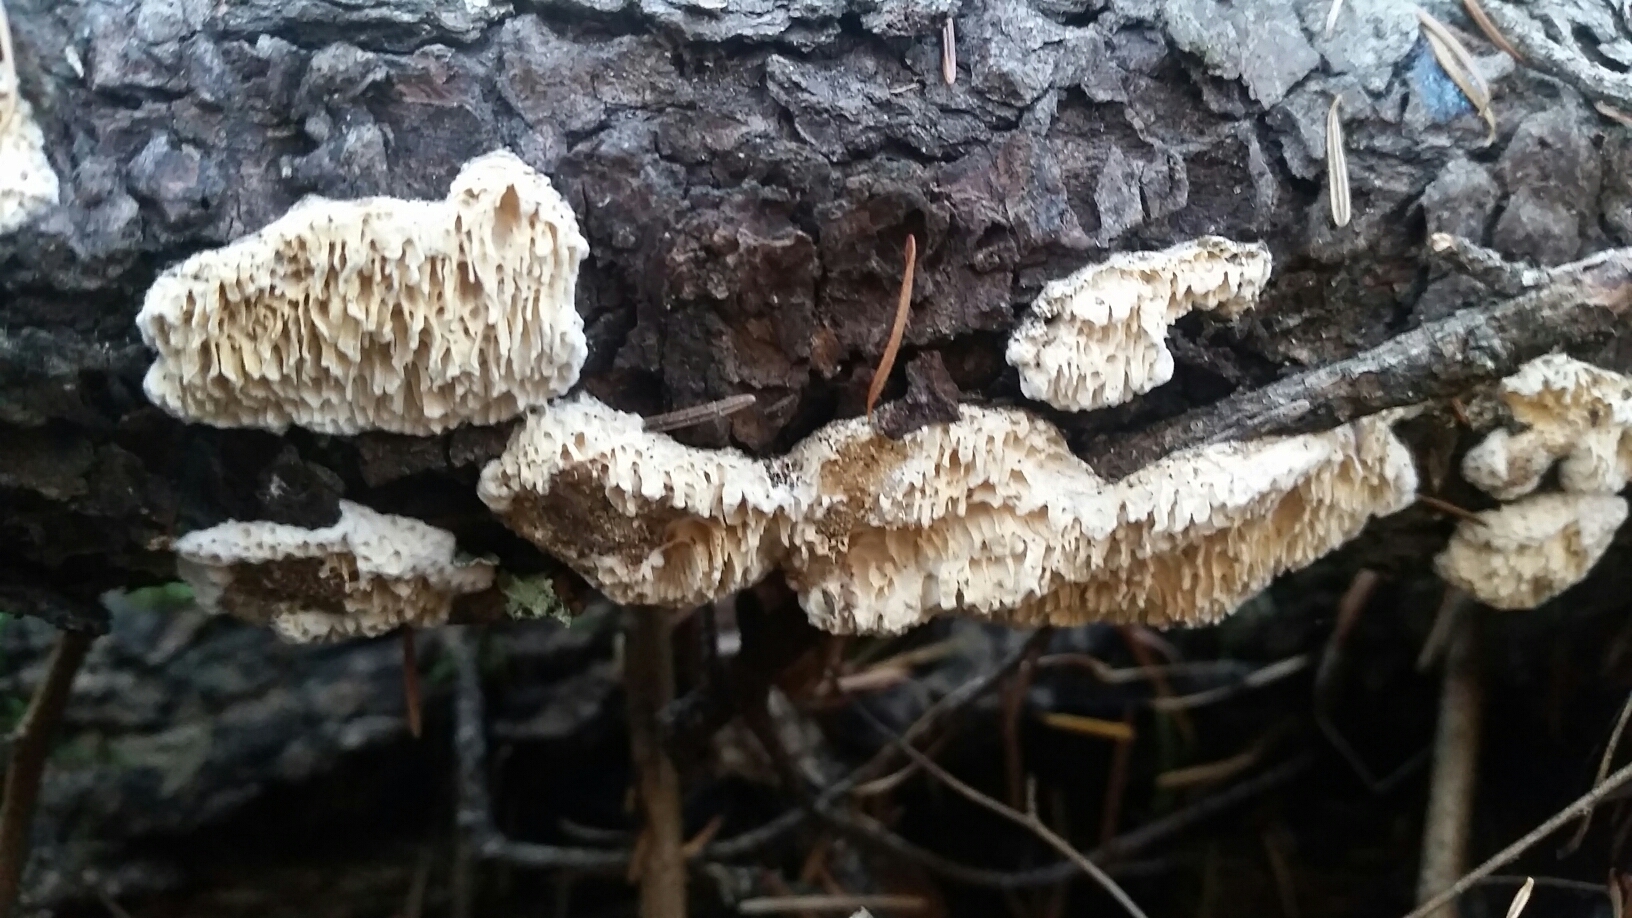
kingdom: Fungi
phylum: Basidiomycota
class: Agaricomycetes
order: Hymenochaetales
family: Schizoporaceae
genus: Xylodon
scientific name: Xylodon radula
